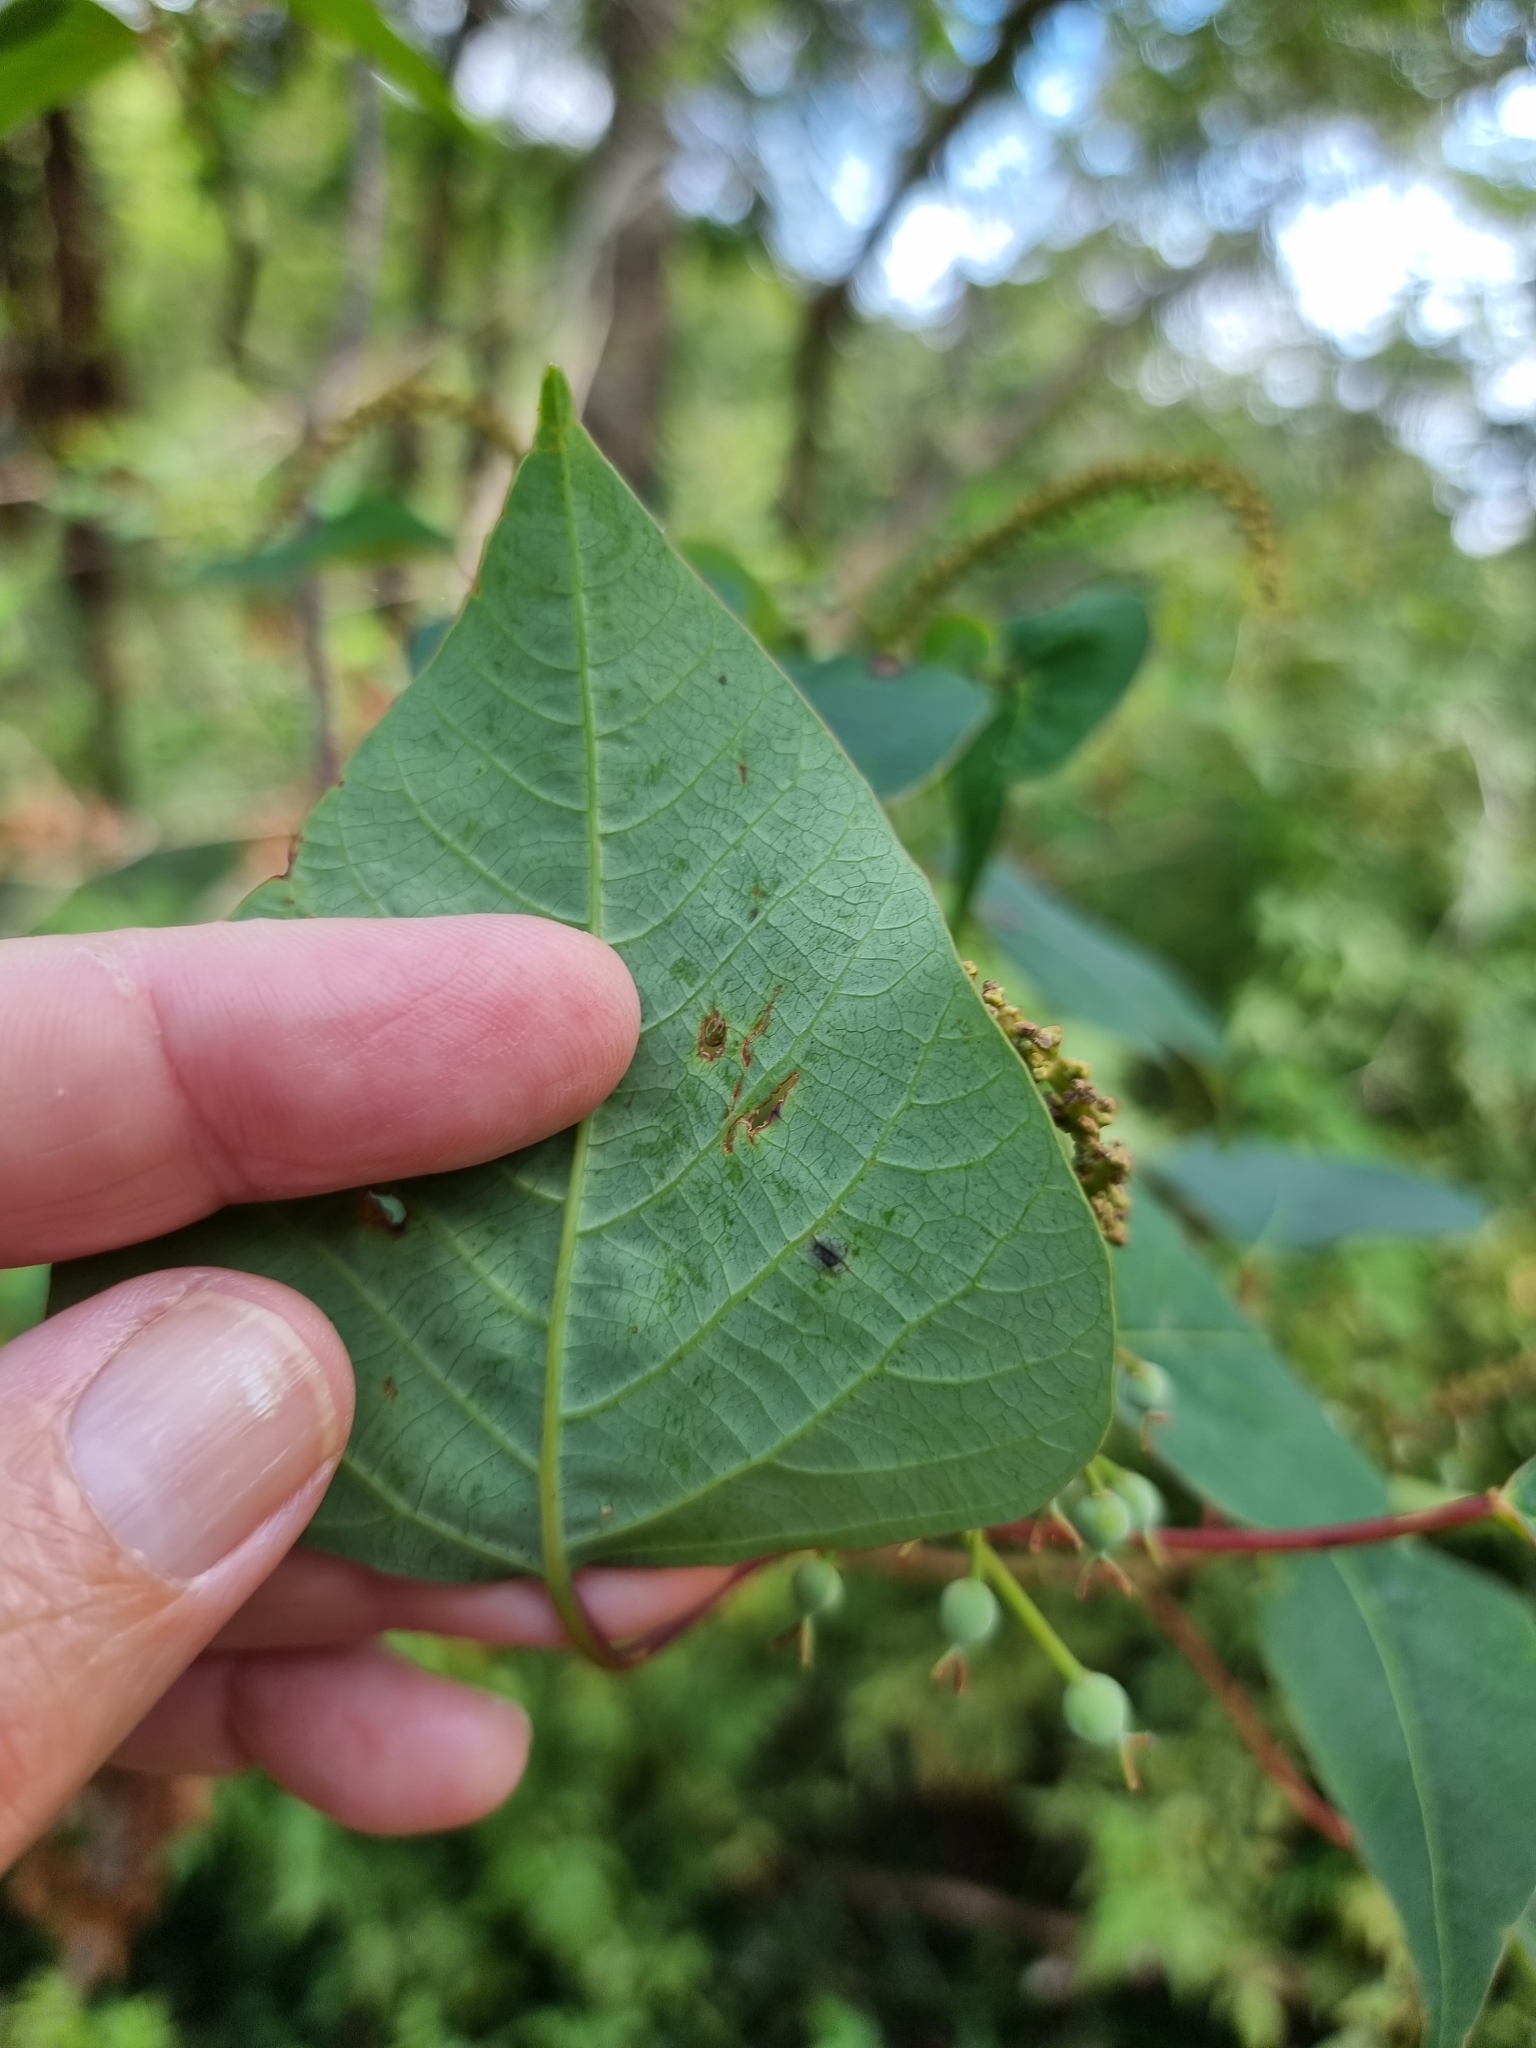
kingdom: Plantae
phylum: Tracheophyta
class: Magnoliopsida
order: Malpighiales
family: Euphorbiaceae
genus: Homalanthus
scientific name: Homalanthus populifolius
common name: Queensland poplar
